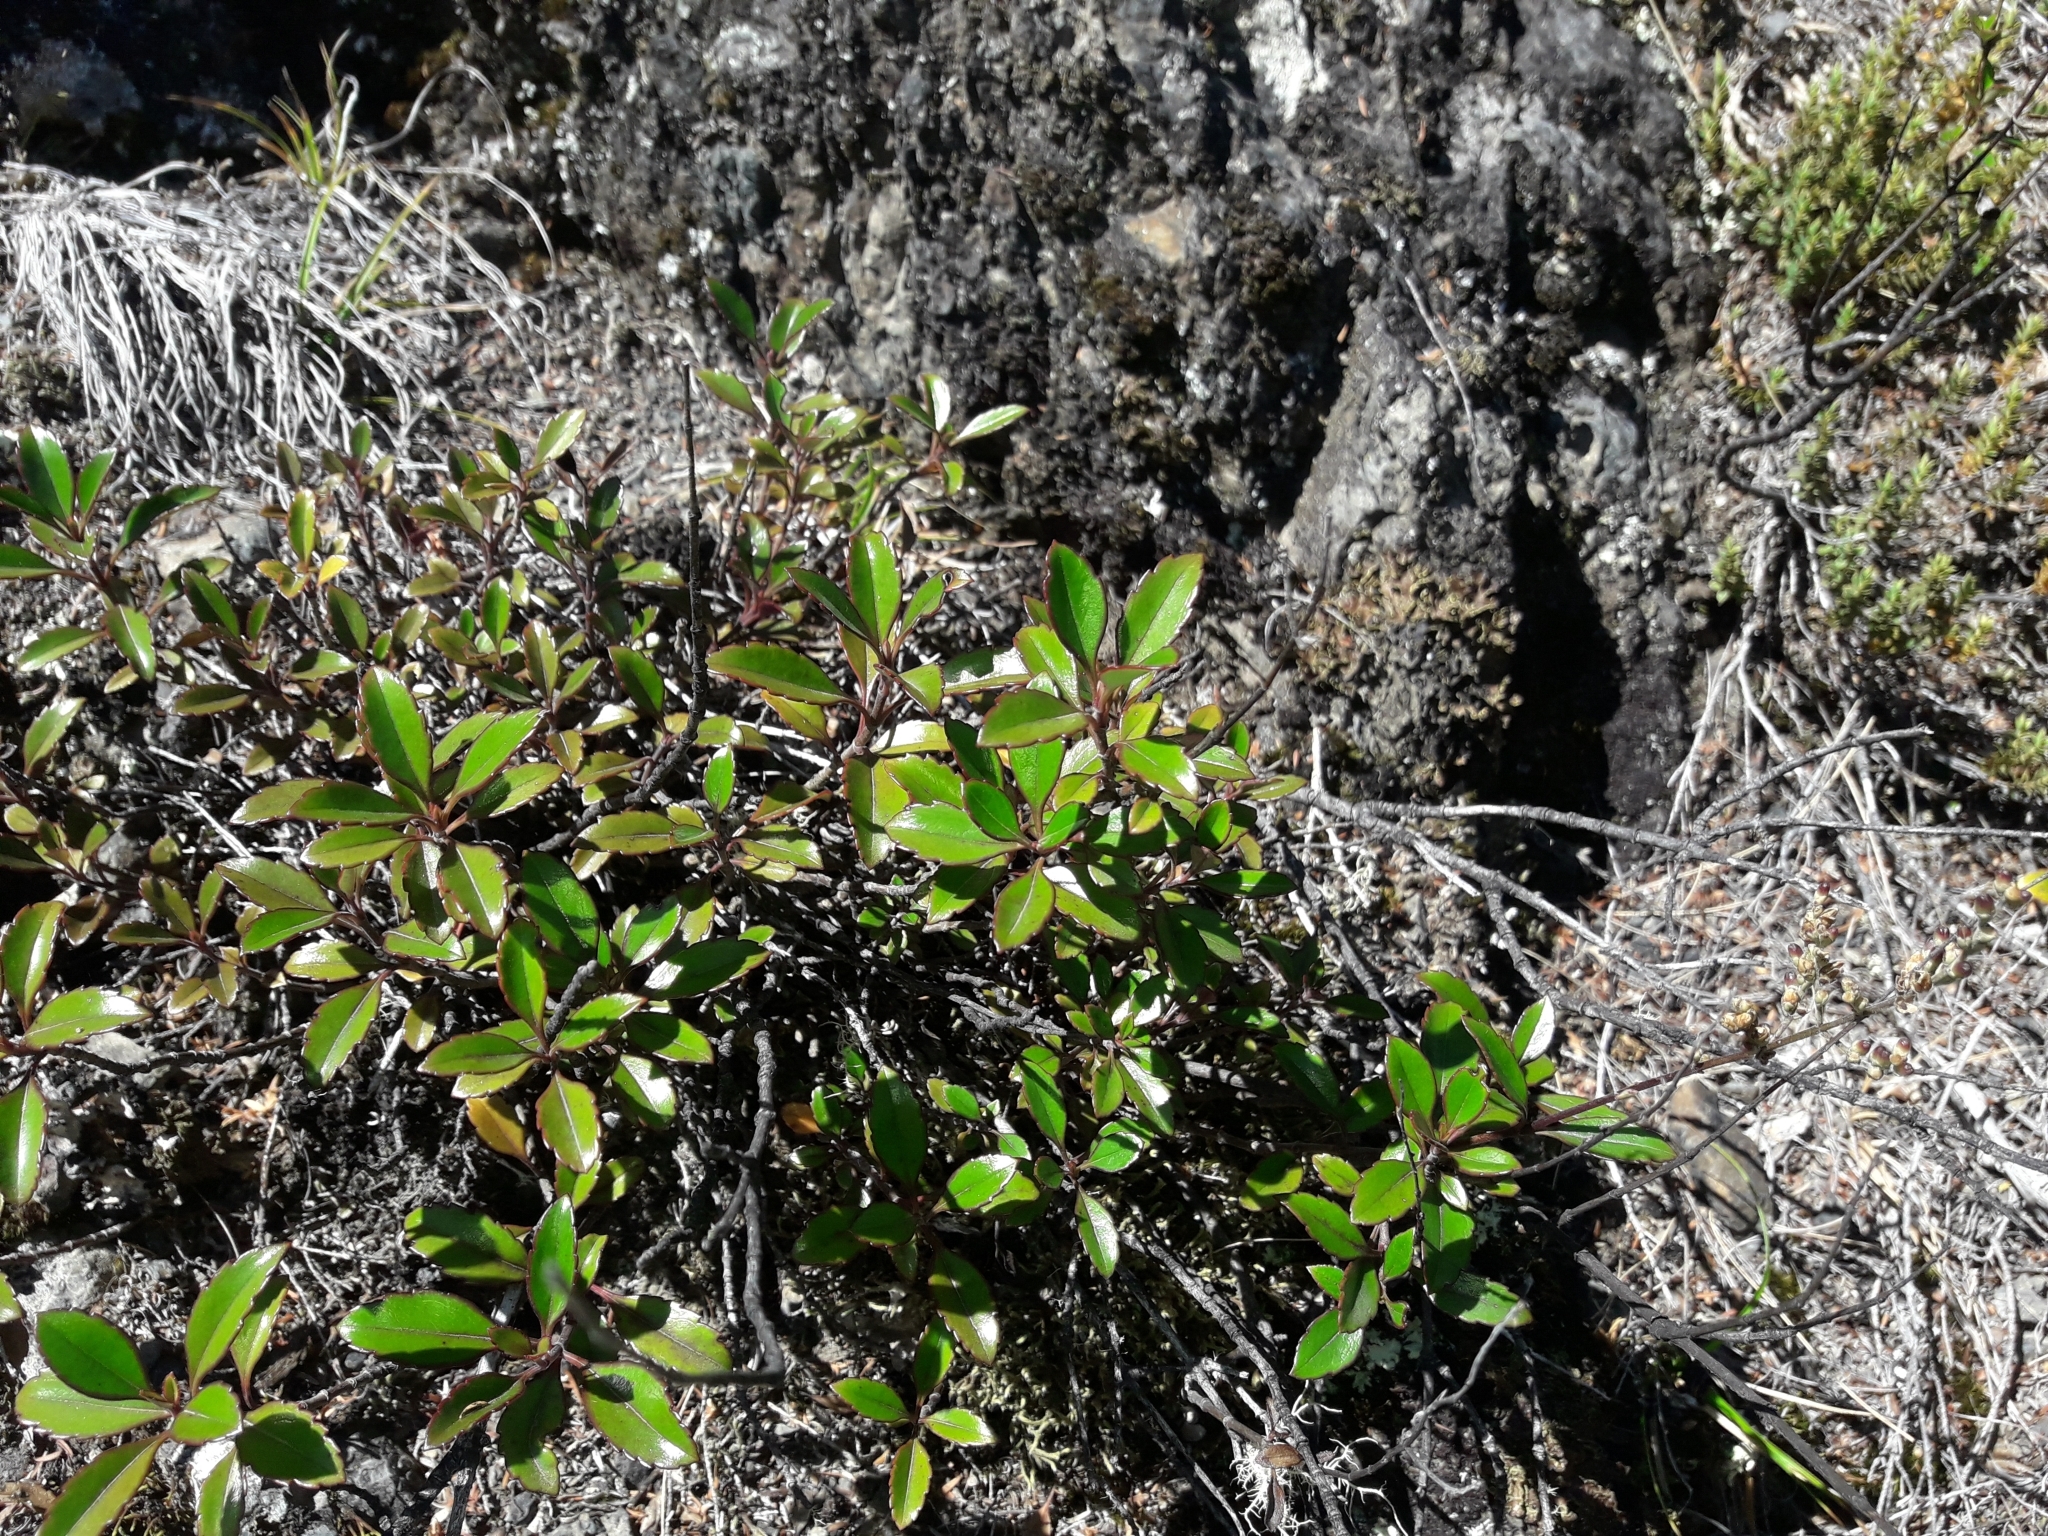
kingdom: Plantae
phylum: Tracheophyta
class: Magnoliopsida
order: Lamiales
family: Plantaginaceae
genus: Veronica
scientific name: Veronica hulkeana
